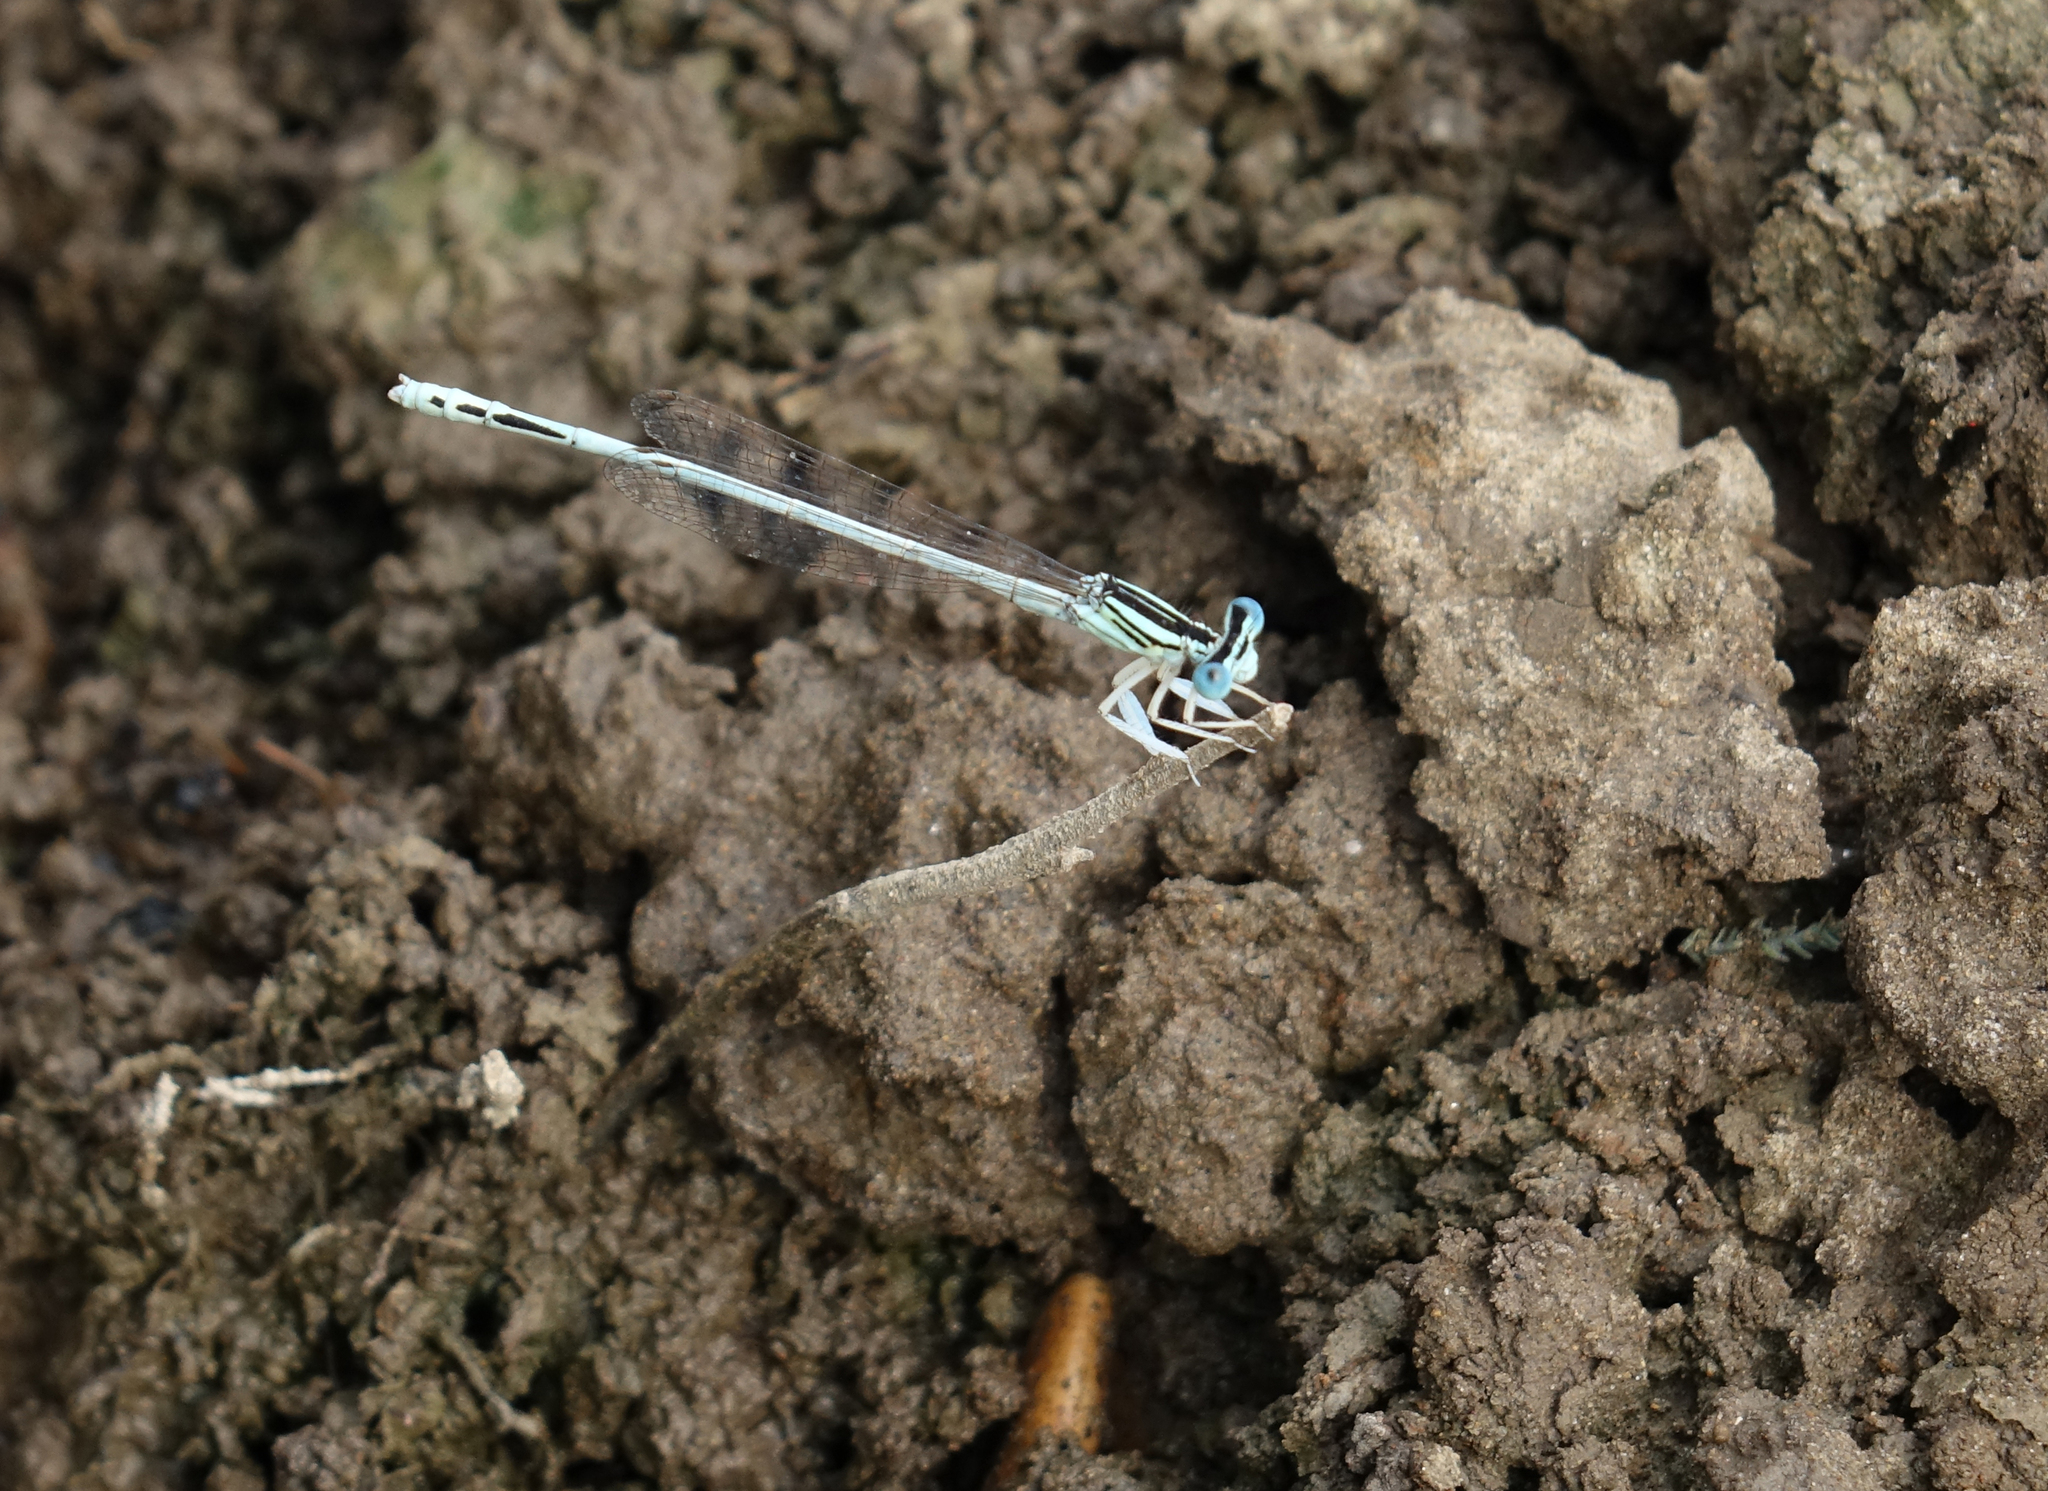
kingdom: Animalia
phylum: Arthropoda
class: Insecta
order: Odonata
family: Platycnemididae
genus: Platycnemis
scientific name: Platycnemis dealbata
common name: Ivory featherleg
